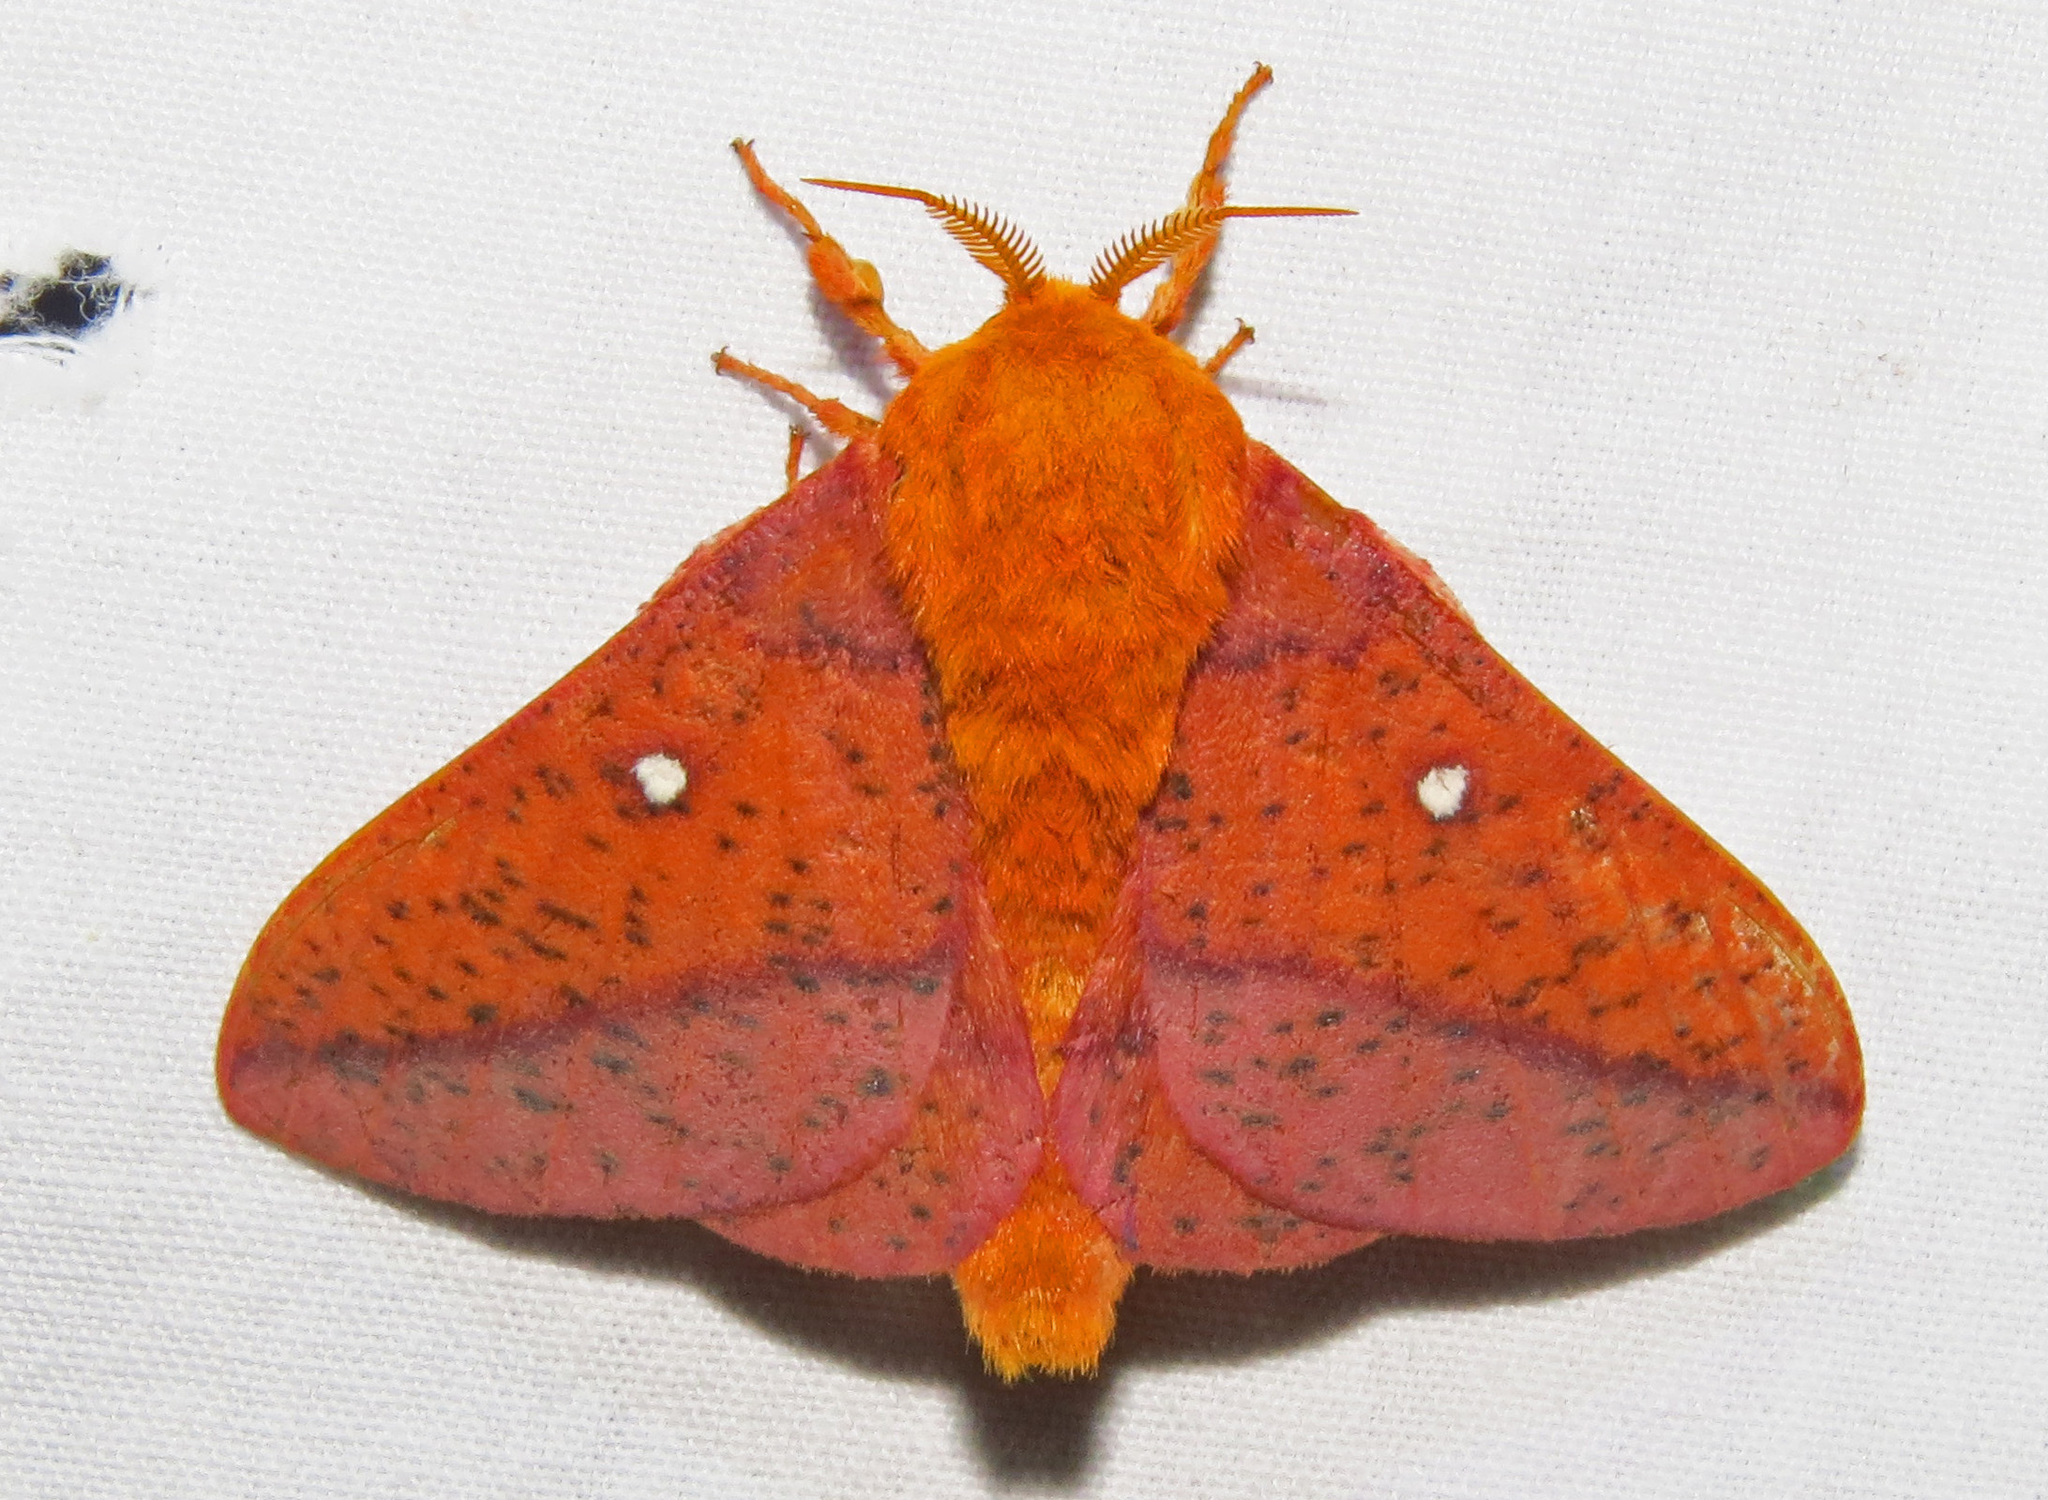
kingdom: Animalia
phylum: Arthropoda
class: Insecta
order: Lepidoptera
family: Saturniidae
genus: Anisota
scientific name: Anisota stigma
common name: Spiny oakworm moth
